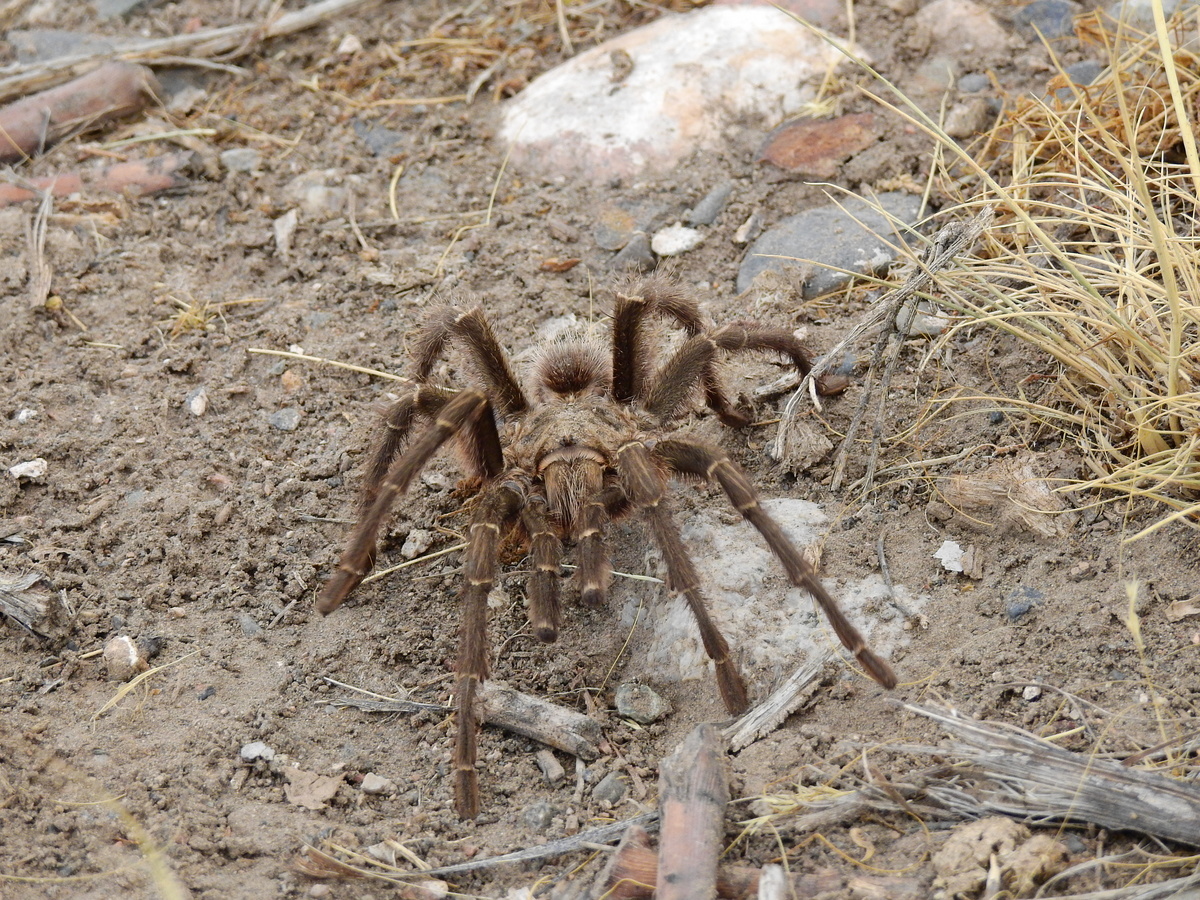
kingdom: Animalia
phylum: Arthropoda
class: Arachnida
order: Araneae
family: Theraphosidae
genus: Grammostola
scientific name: Grammostola inermis
